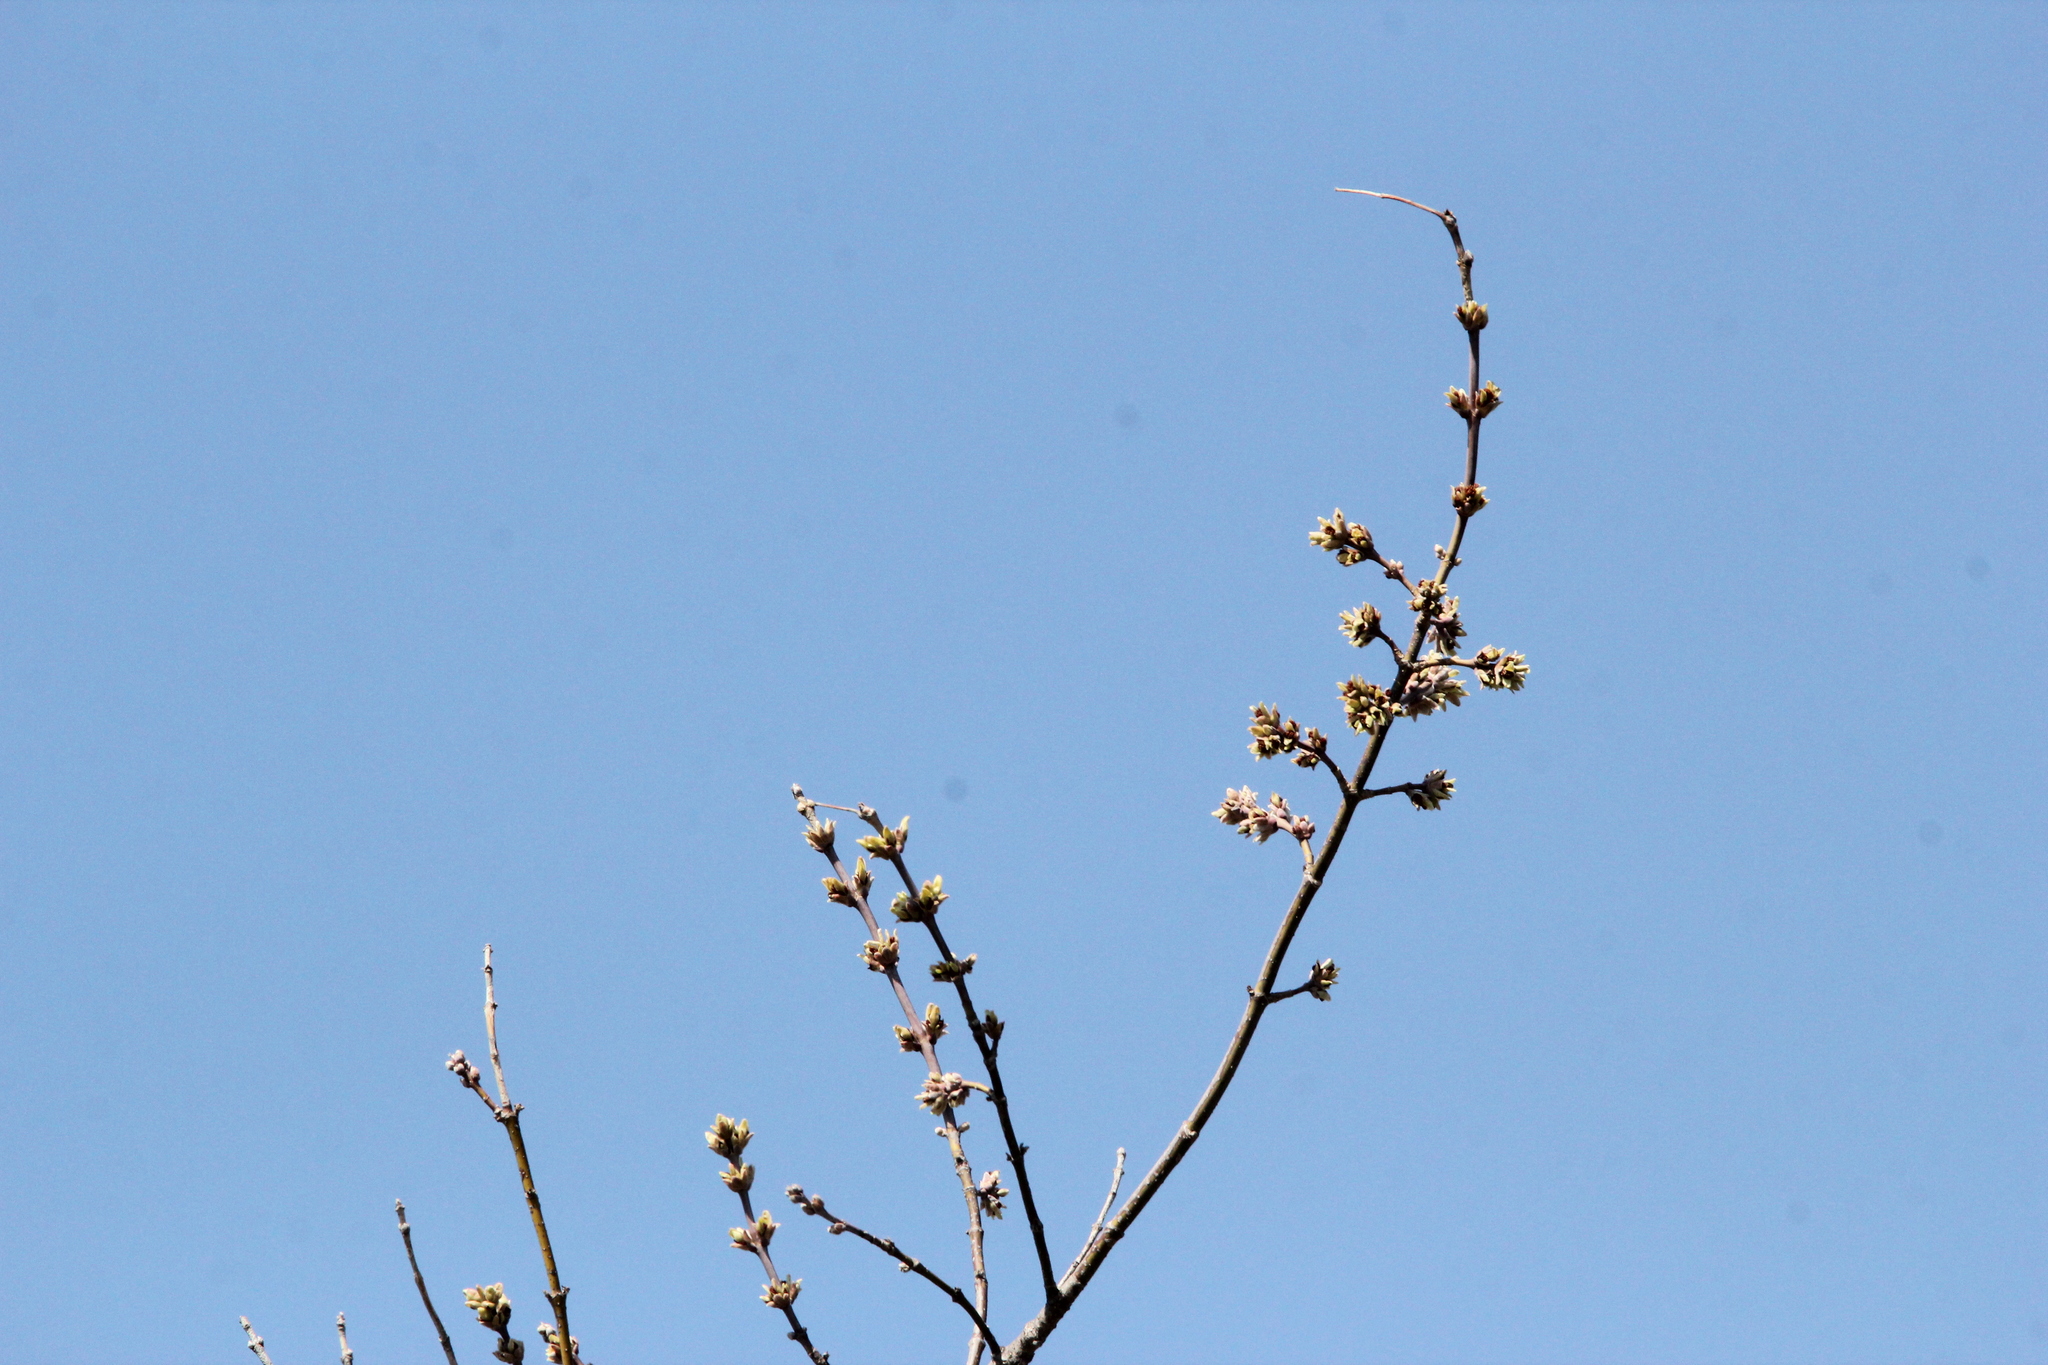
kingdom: Plantae
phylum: Tracheophyta
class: Magnoliopsida
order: Sapindales
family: Sapindaceae
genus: Acer
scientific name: Acer negundo
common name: Ashleaf maple
